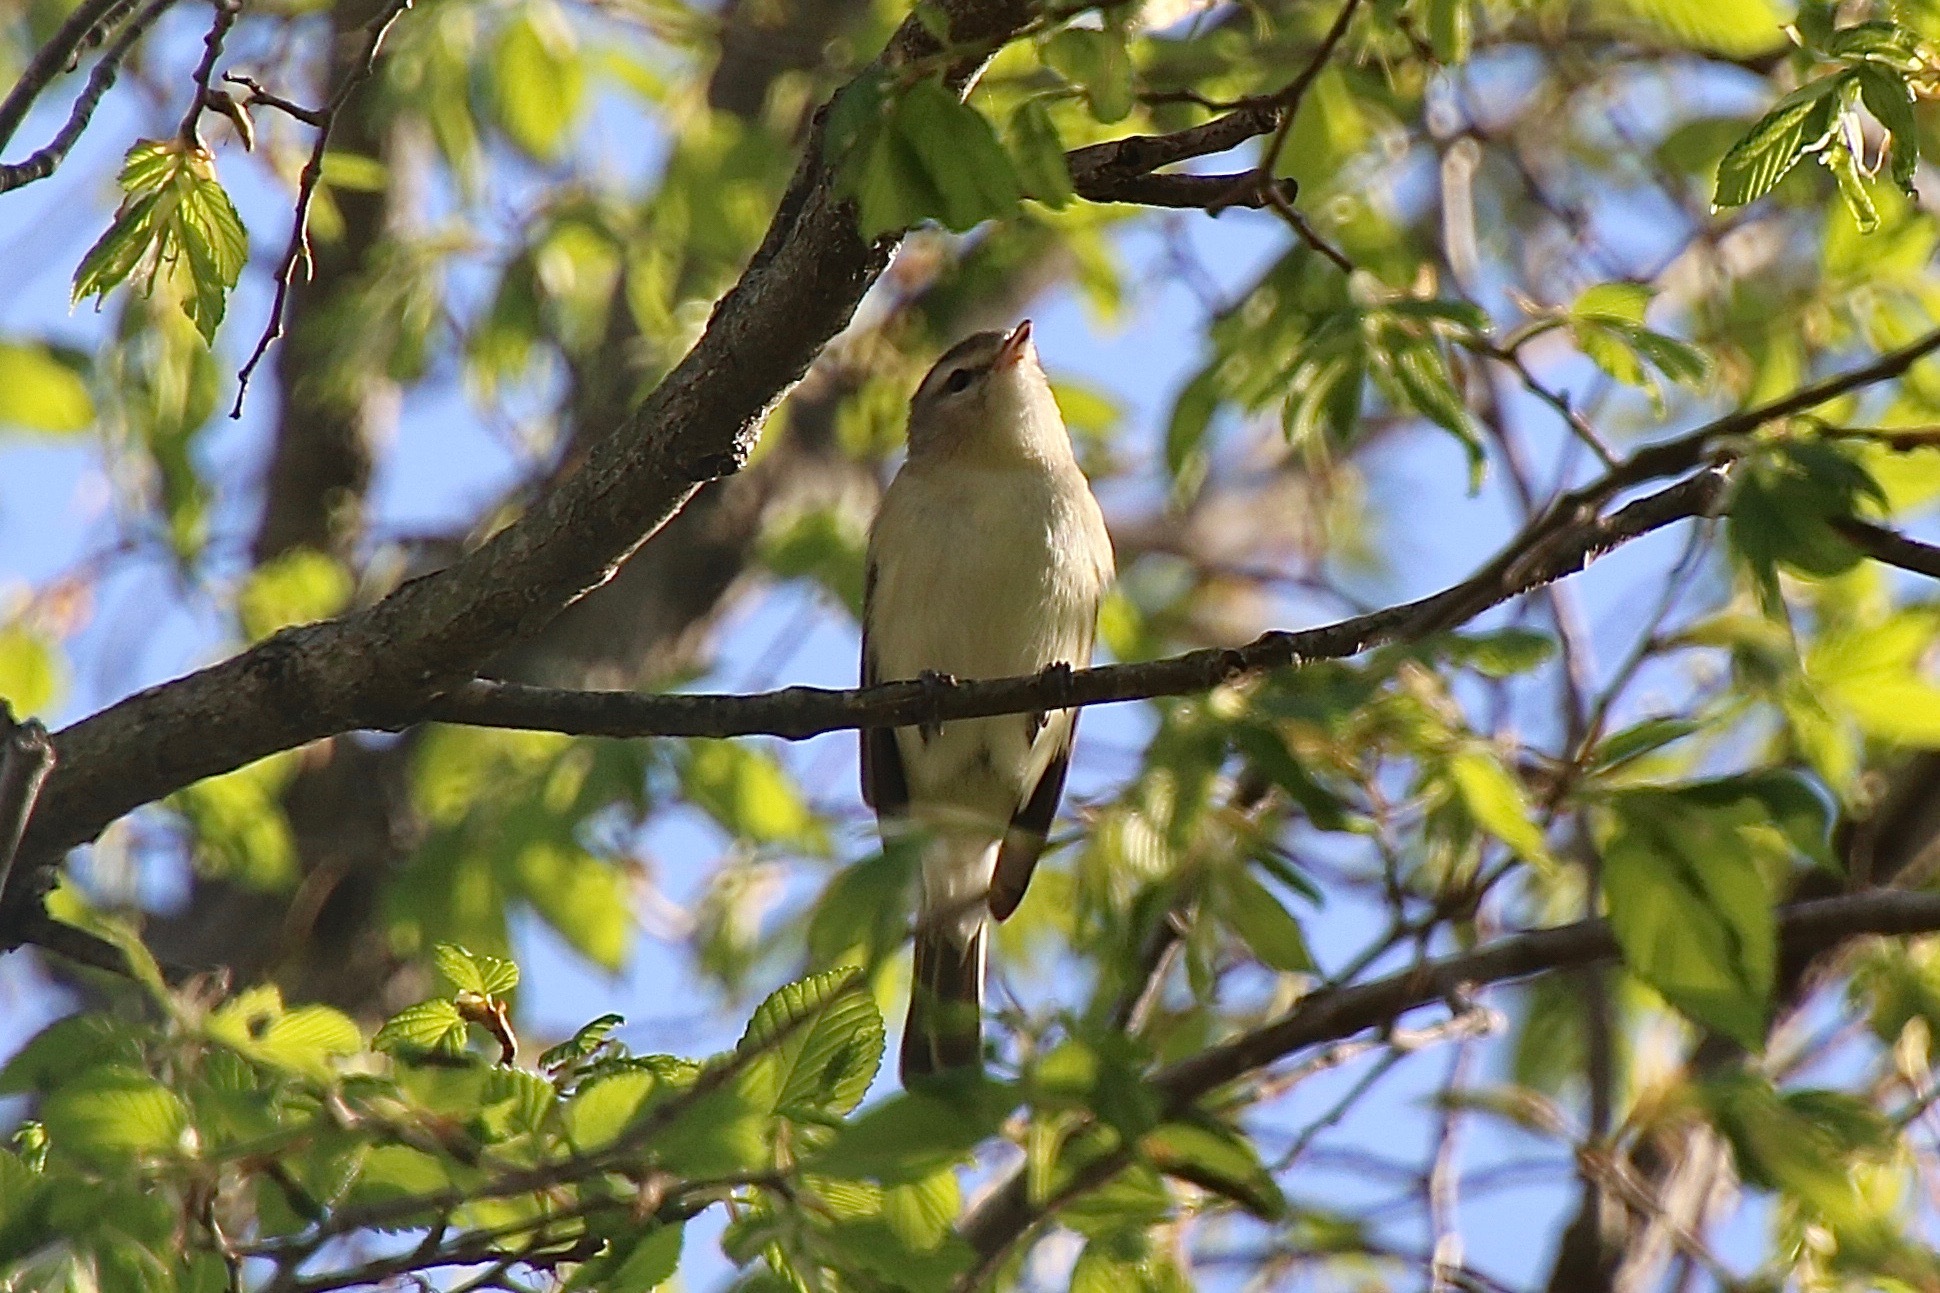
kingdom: Animalia
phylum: Chordata
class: Aves
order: Passeriformes
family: Vireonidae
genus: Vireo
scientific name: Vireo gilvus
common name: Warbling vireo
